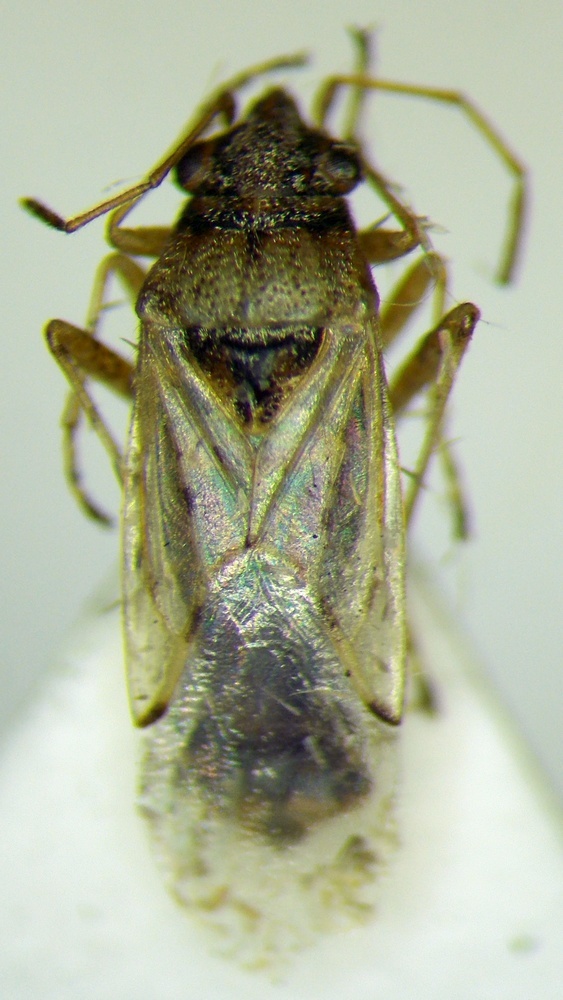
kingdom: Animalia
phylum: Arthropoda
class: Insecta
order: Hemiptera
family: Lygaeidae
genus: Nysius
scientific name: Nysius cymoides
